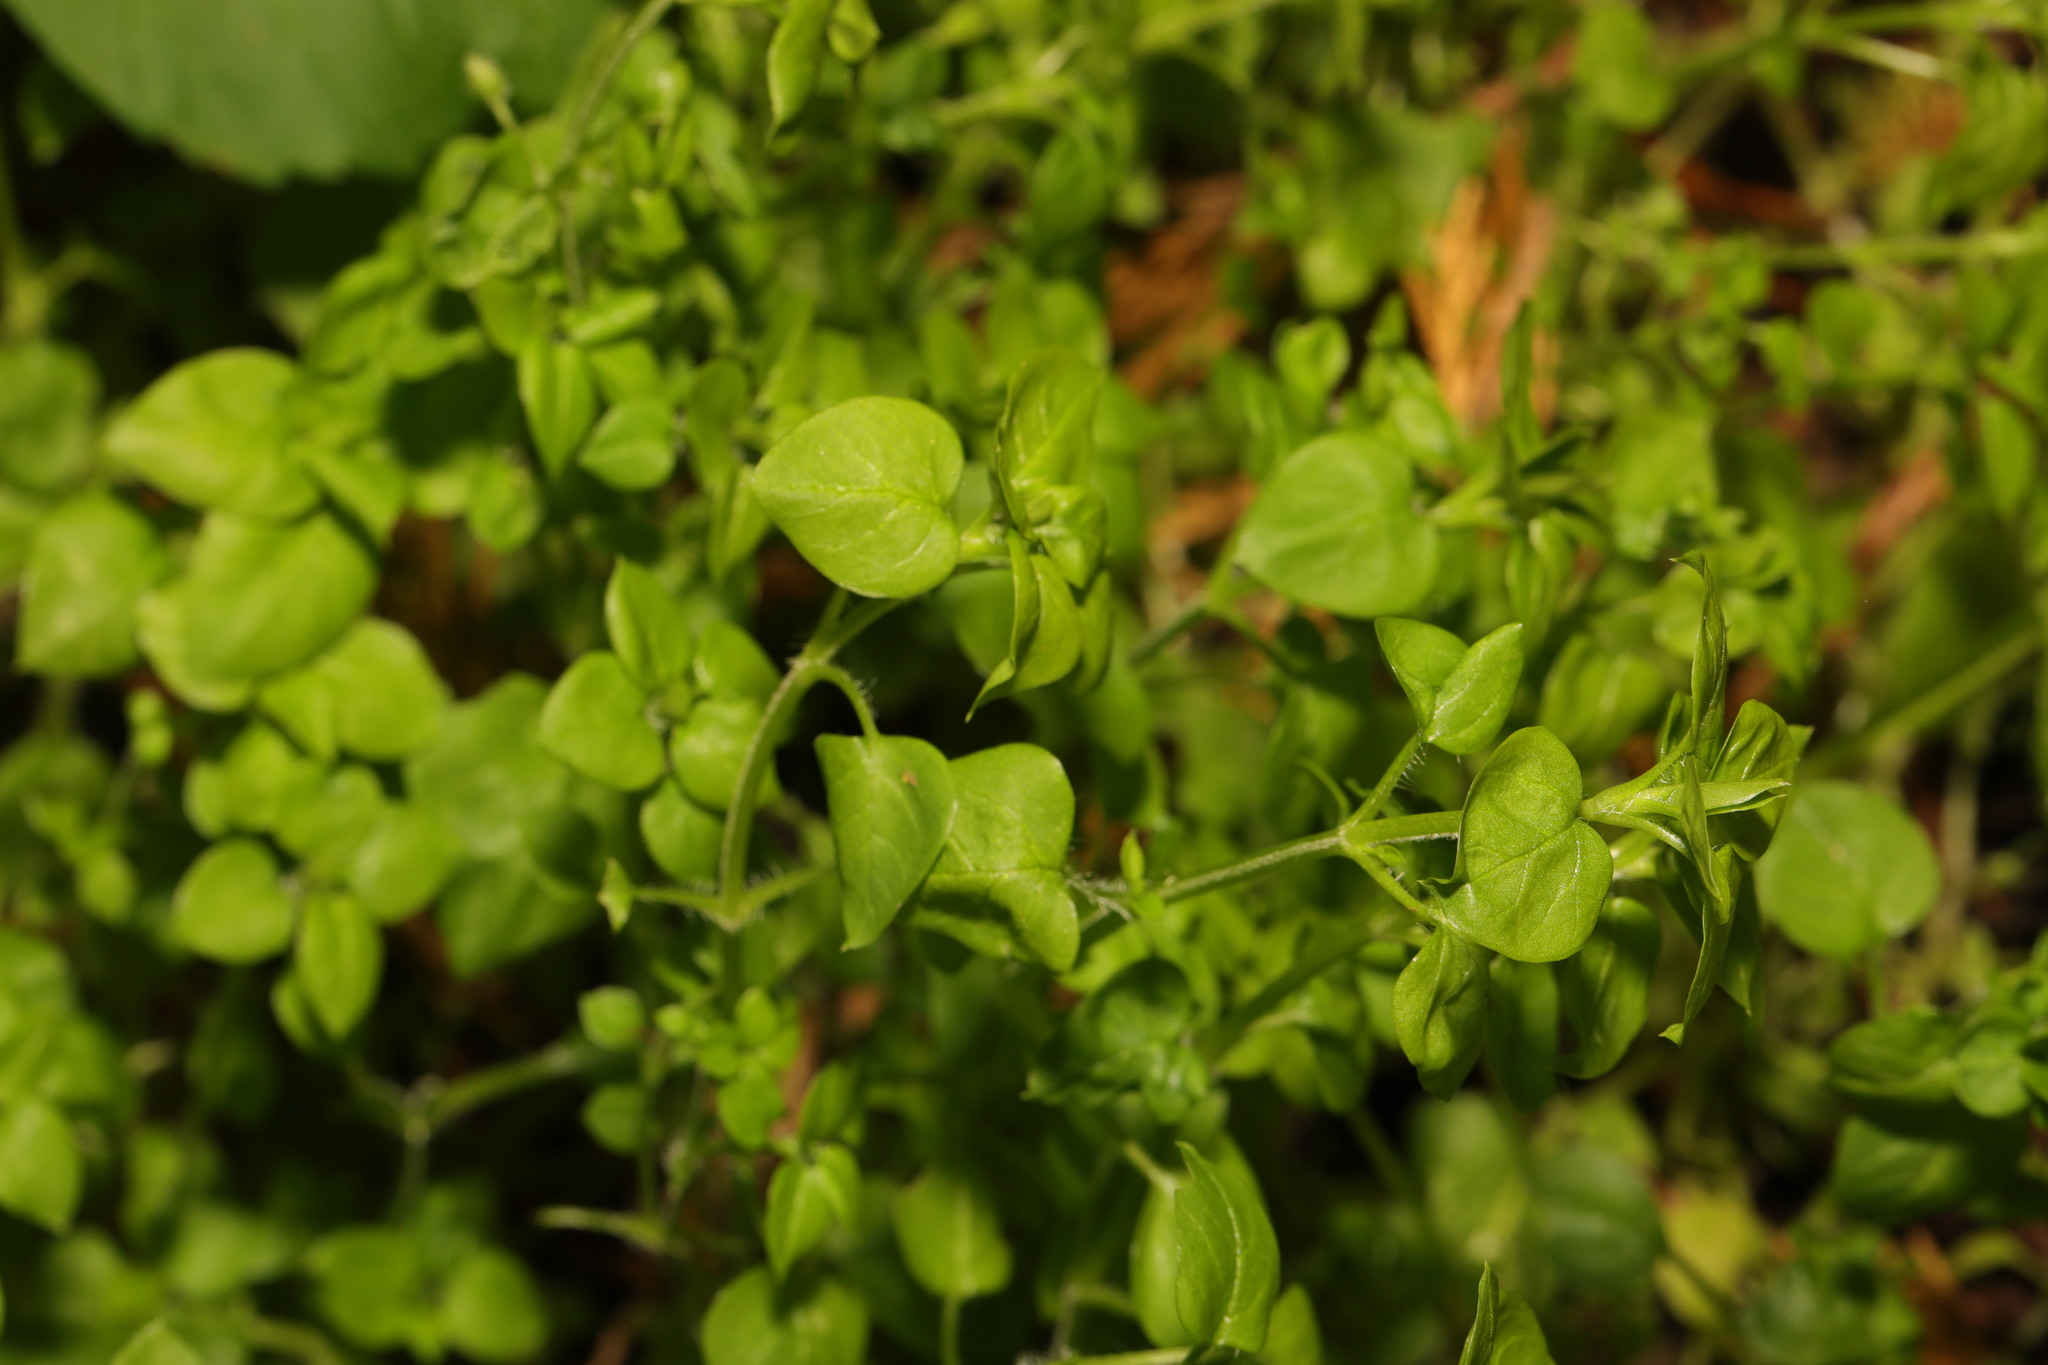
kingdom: Plantae
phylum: Tracheophyta
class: Magnoliopsida
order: Caryophyllales
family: Caryophyllaceae
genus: Stellaria
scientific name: Stellaria media
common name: Common chickweed
